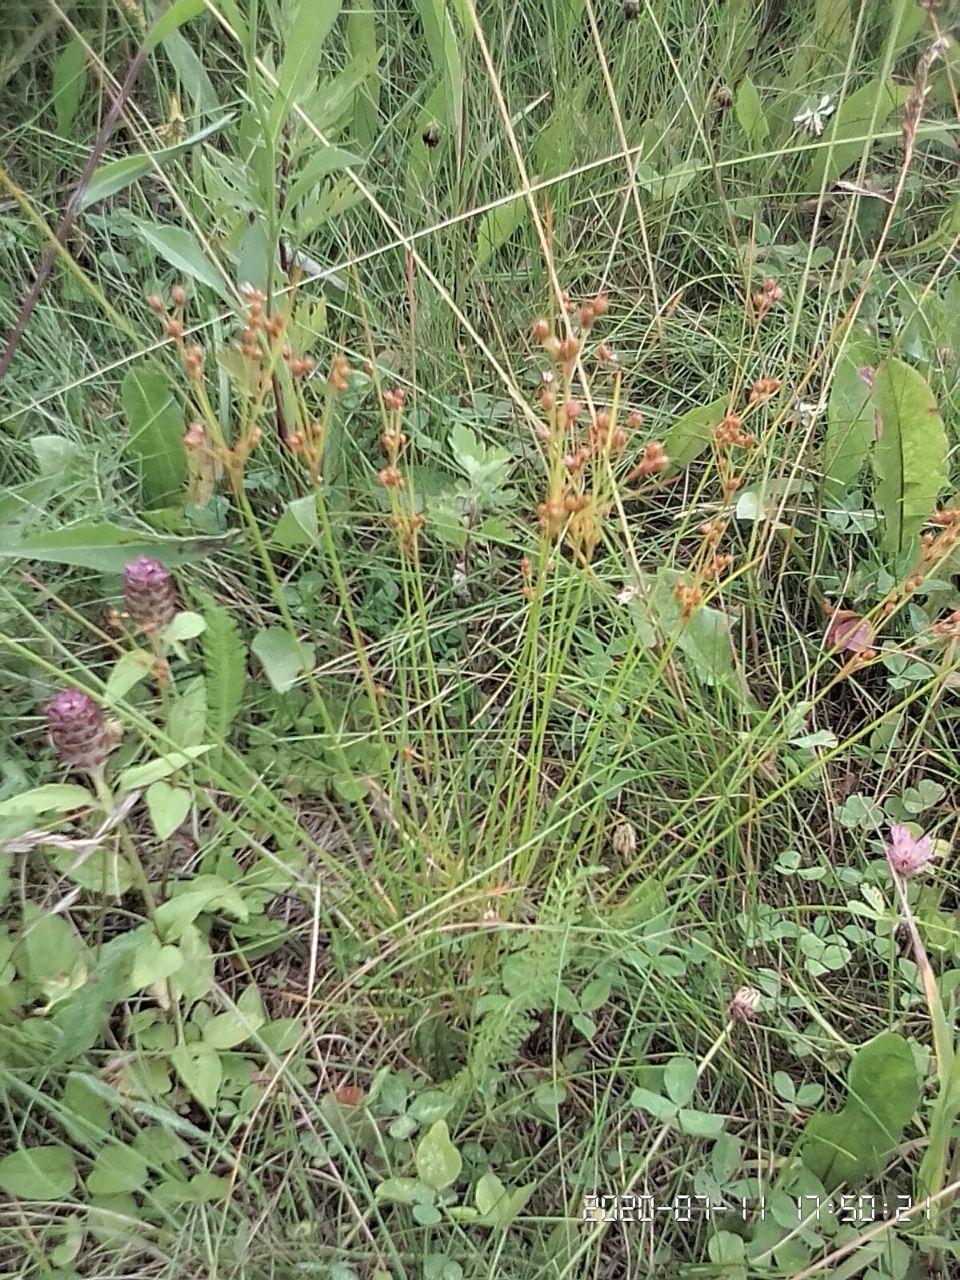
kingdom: Plantae
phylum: Tracheophyta
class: Liliopsida
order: Poales
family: Juncaceae
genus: Juncus
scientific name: Juncus tenuis
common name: Slender rush
